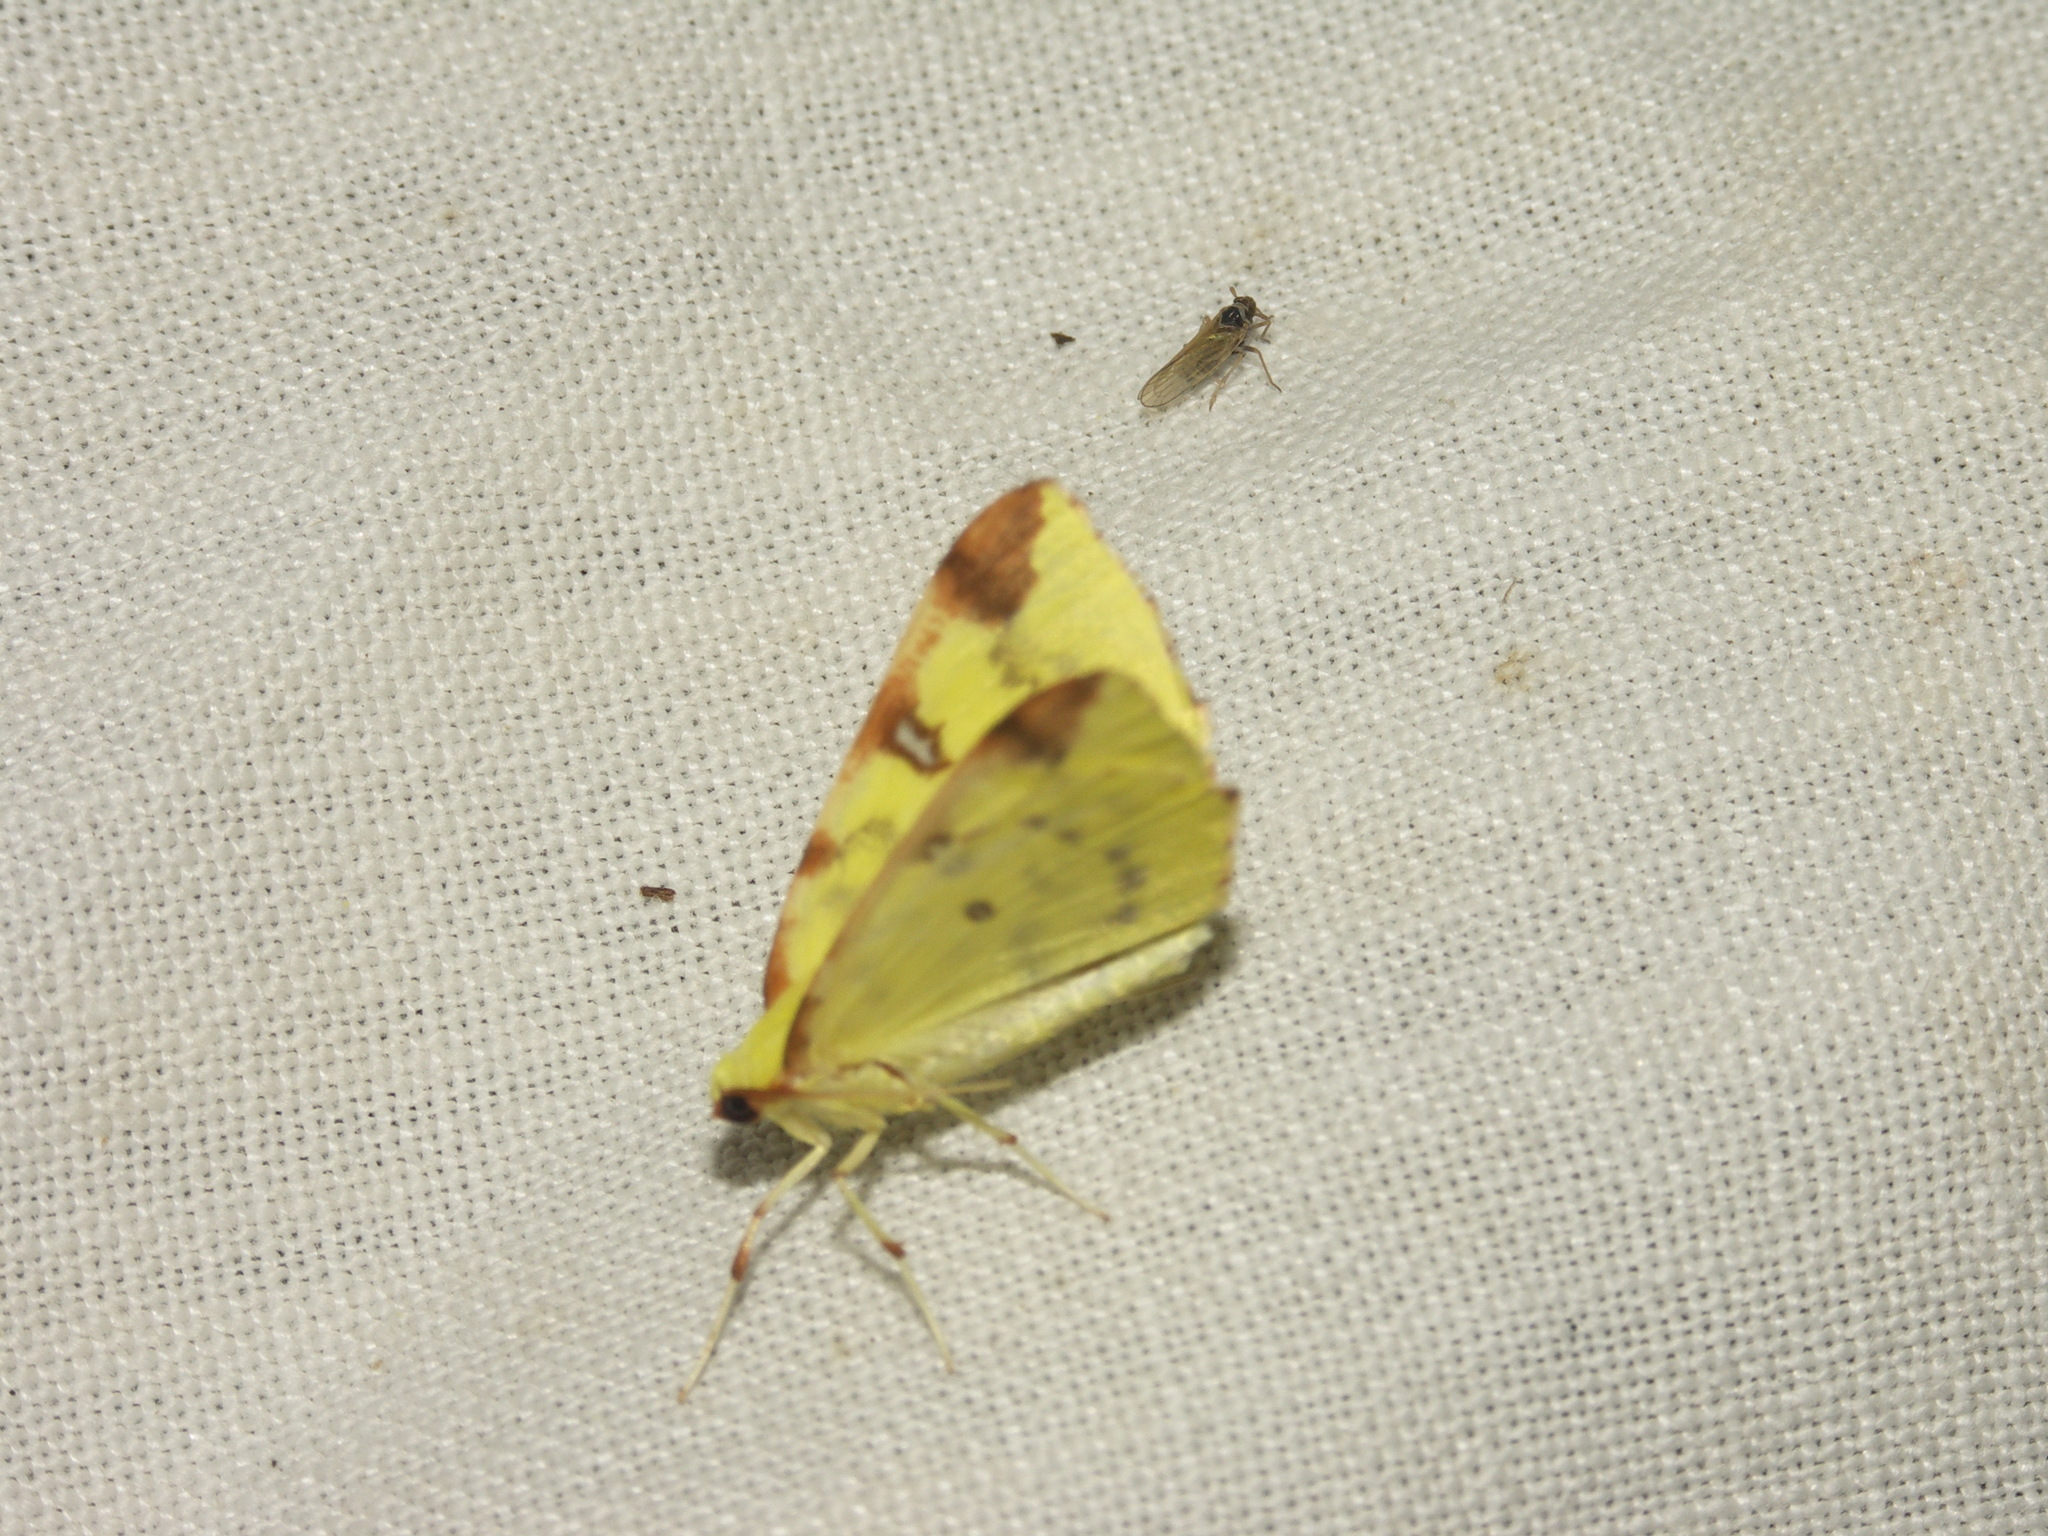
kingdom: Animalia
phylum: Arthropoda
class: Insecta
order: Lepidoptera
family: Geometridae
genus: Opisthograptis
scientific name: Opisthograptis luteolata
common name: Brimstone moth
